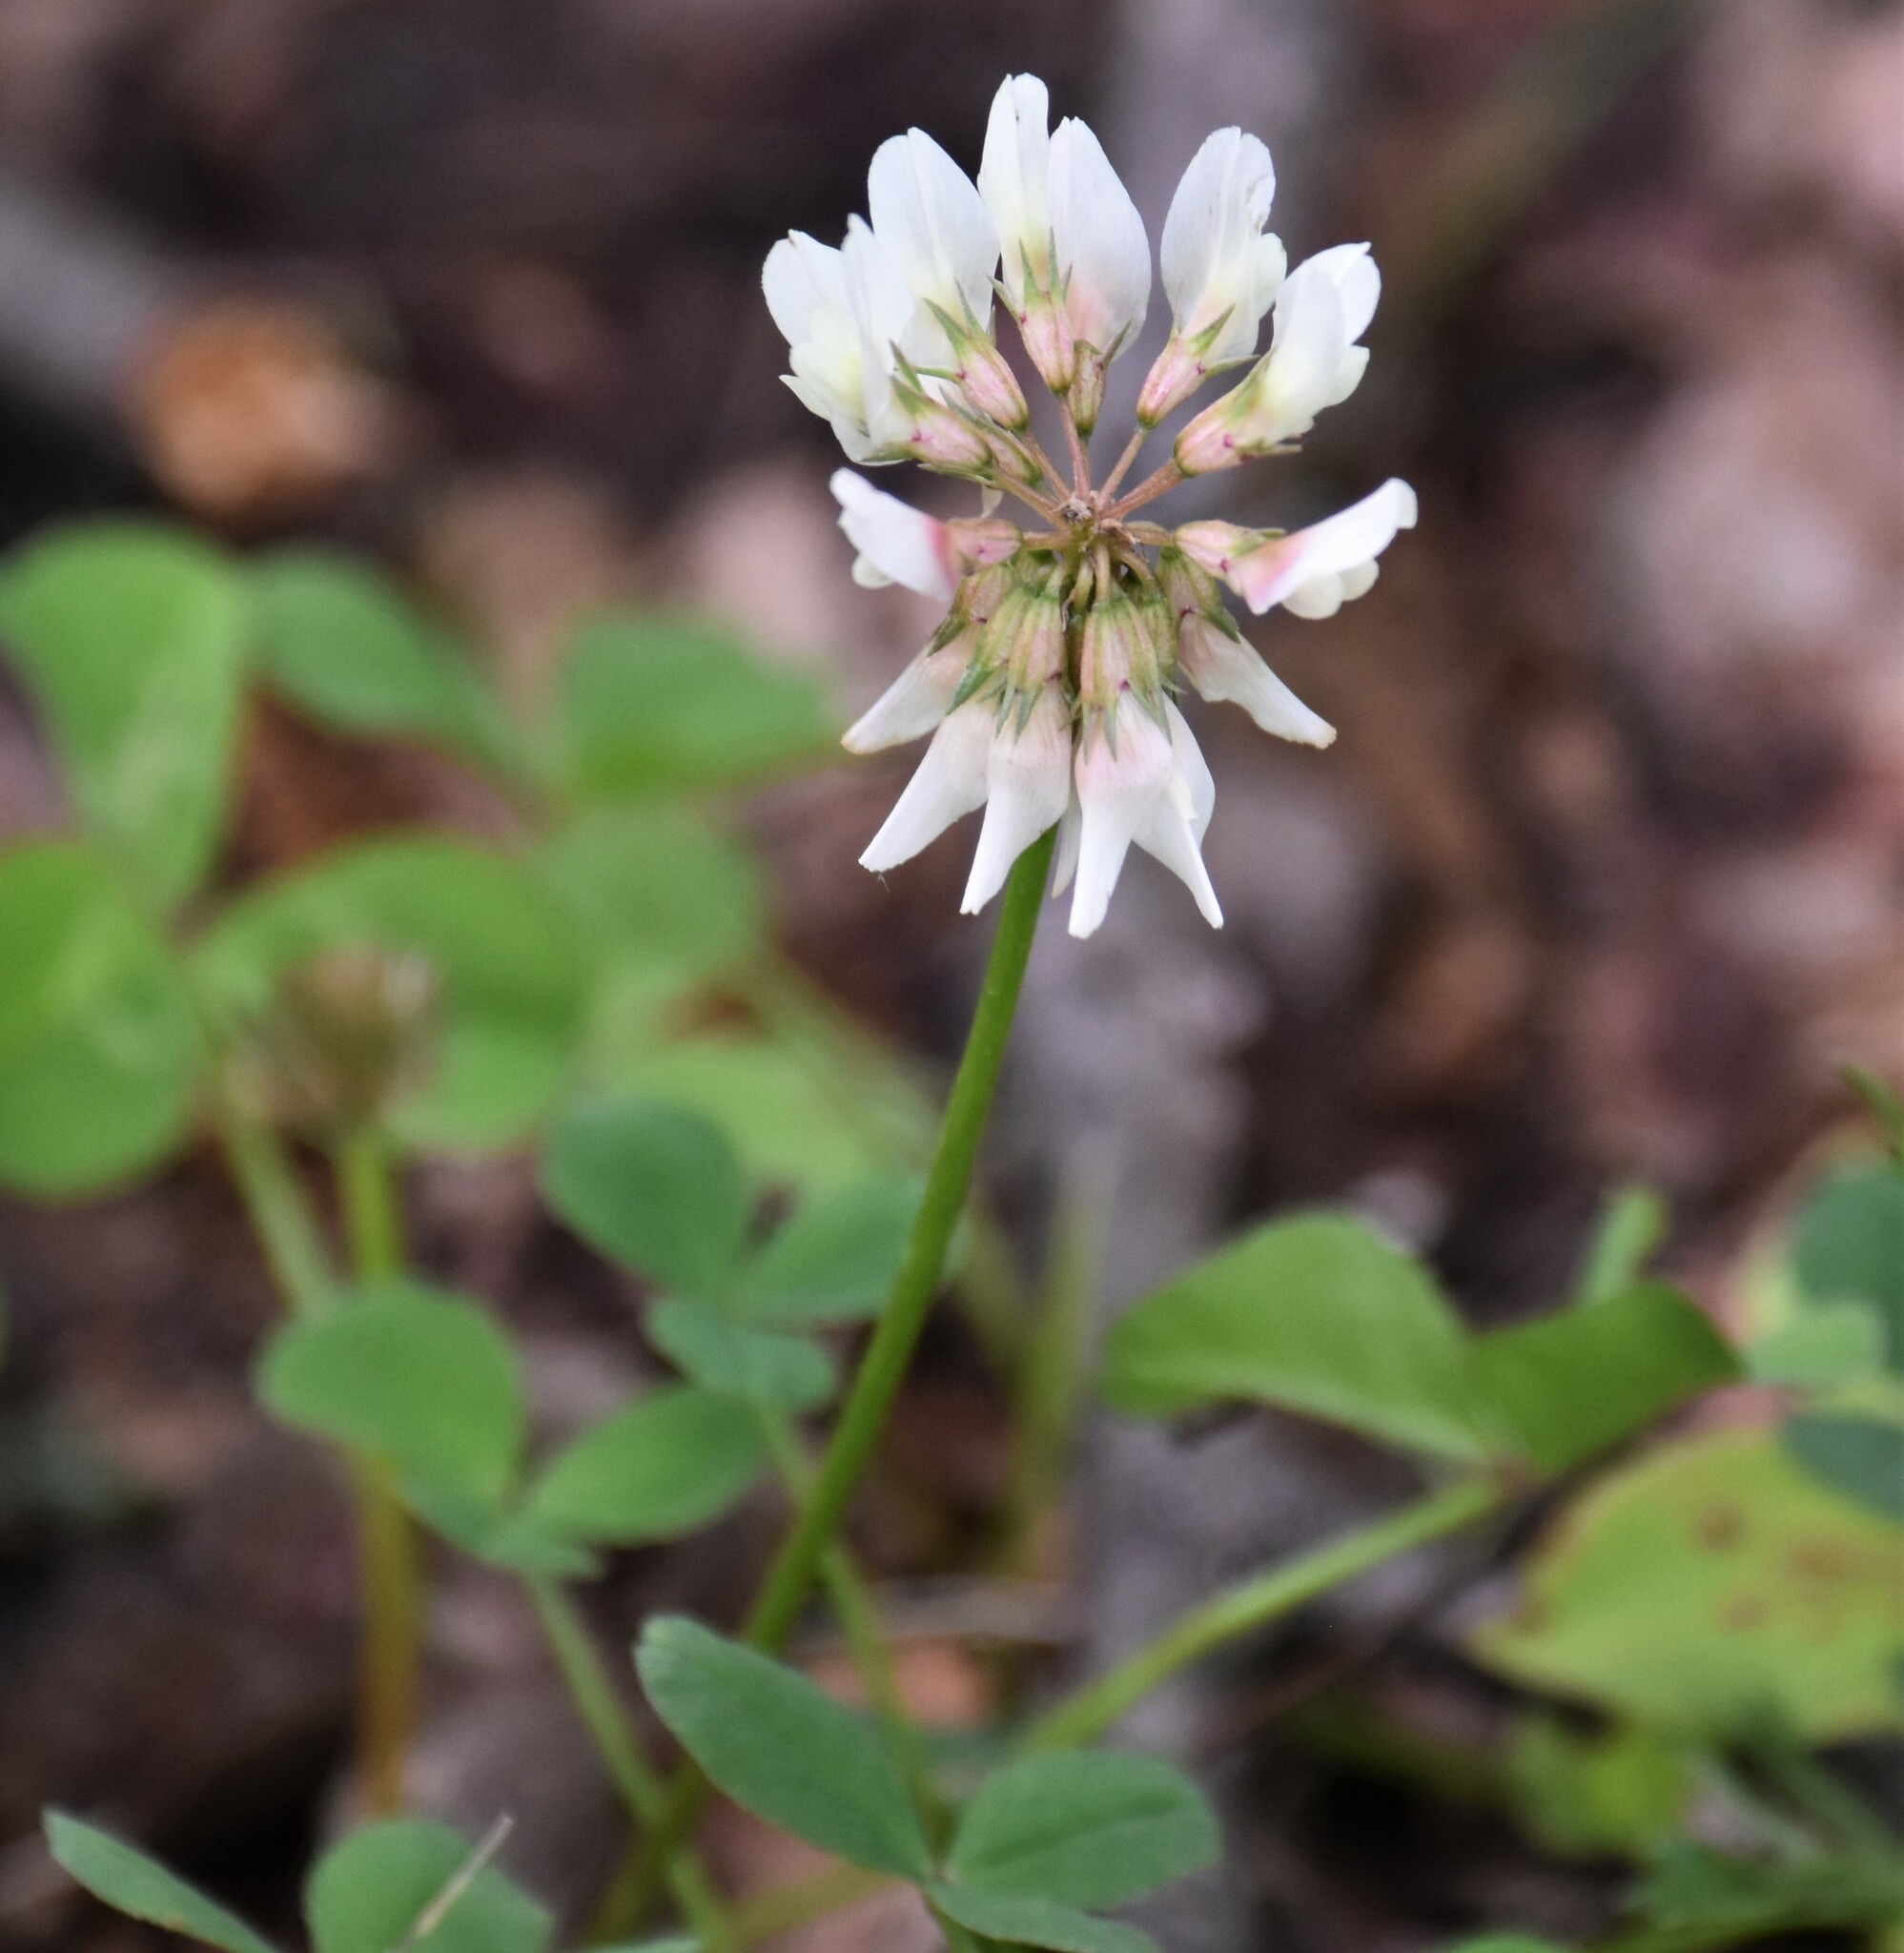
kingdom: Plantae
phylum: Tracheophyta
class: Magnoliopsida
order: Fabales
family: Fabaceae
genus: Trifolium
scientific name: Trifolium repens
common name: White clover
